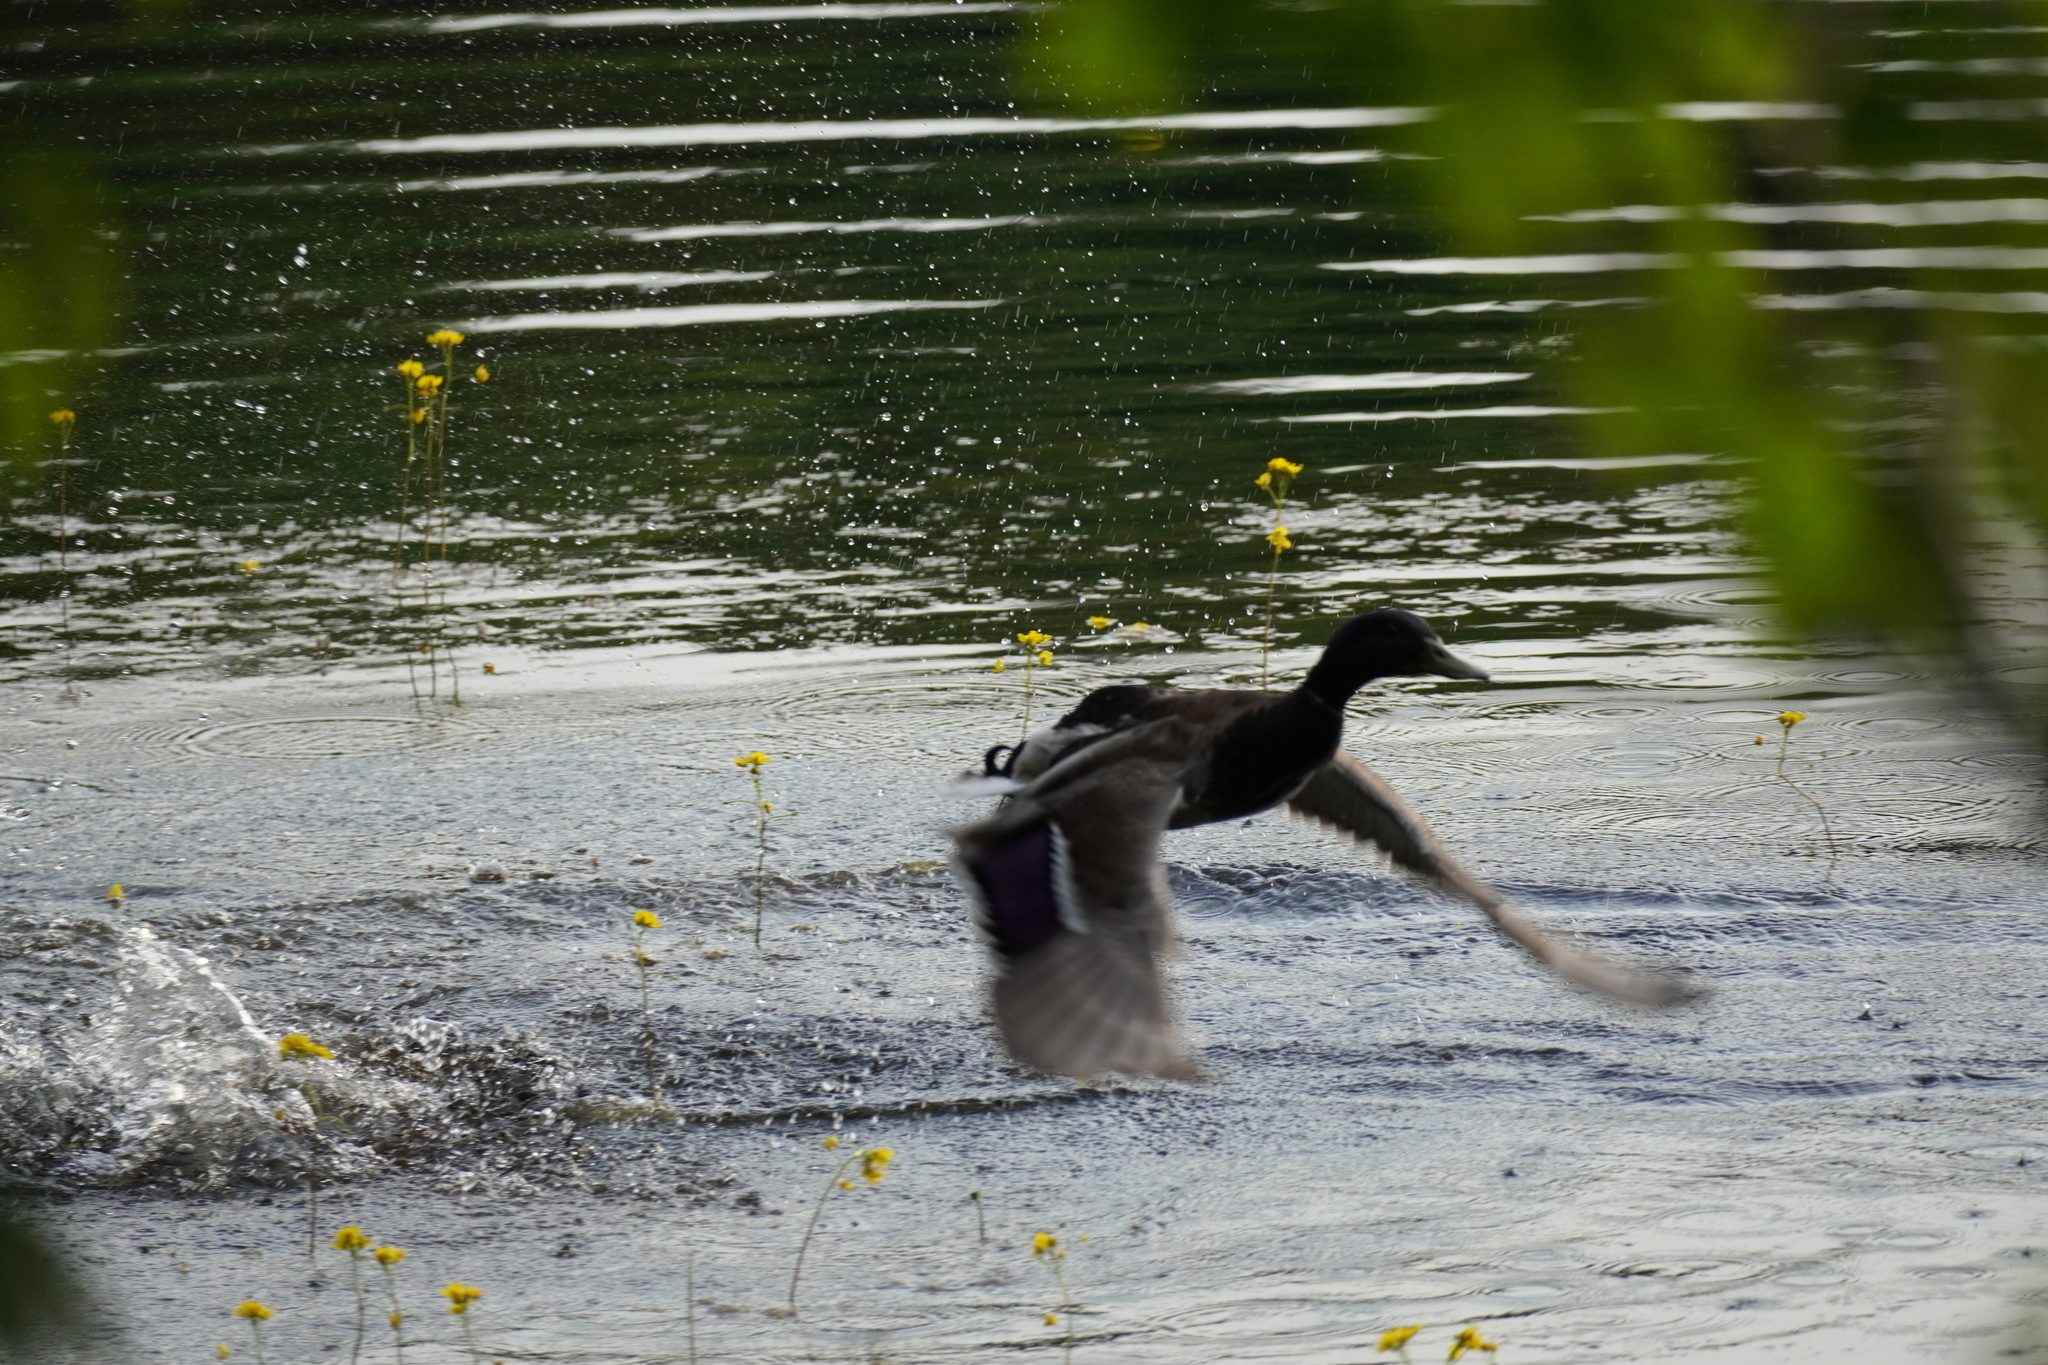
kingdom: Animalia
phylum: Chordata
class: Aves
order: Anseriformes
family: Anatidae
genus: Anas
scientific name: Anas platyrhynchos
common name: Mallard
